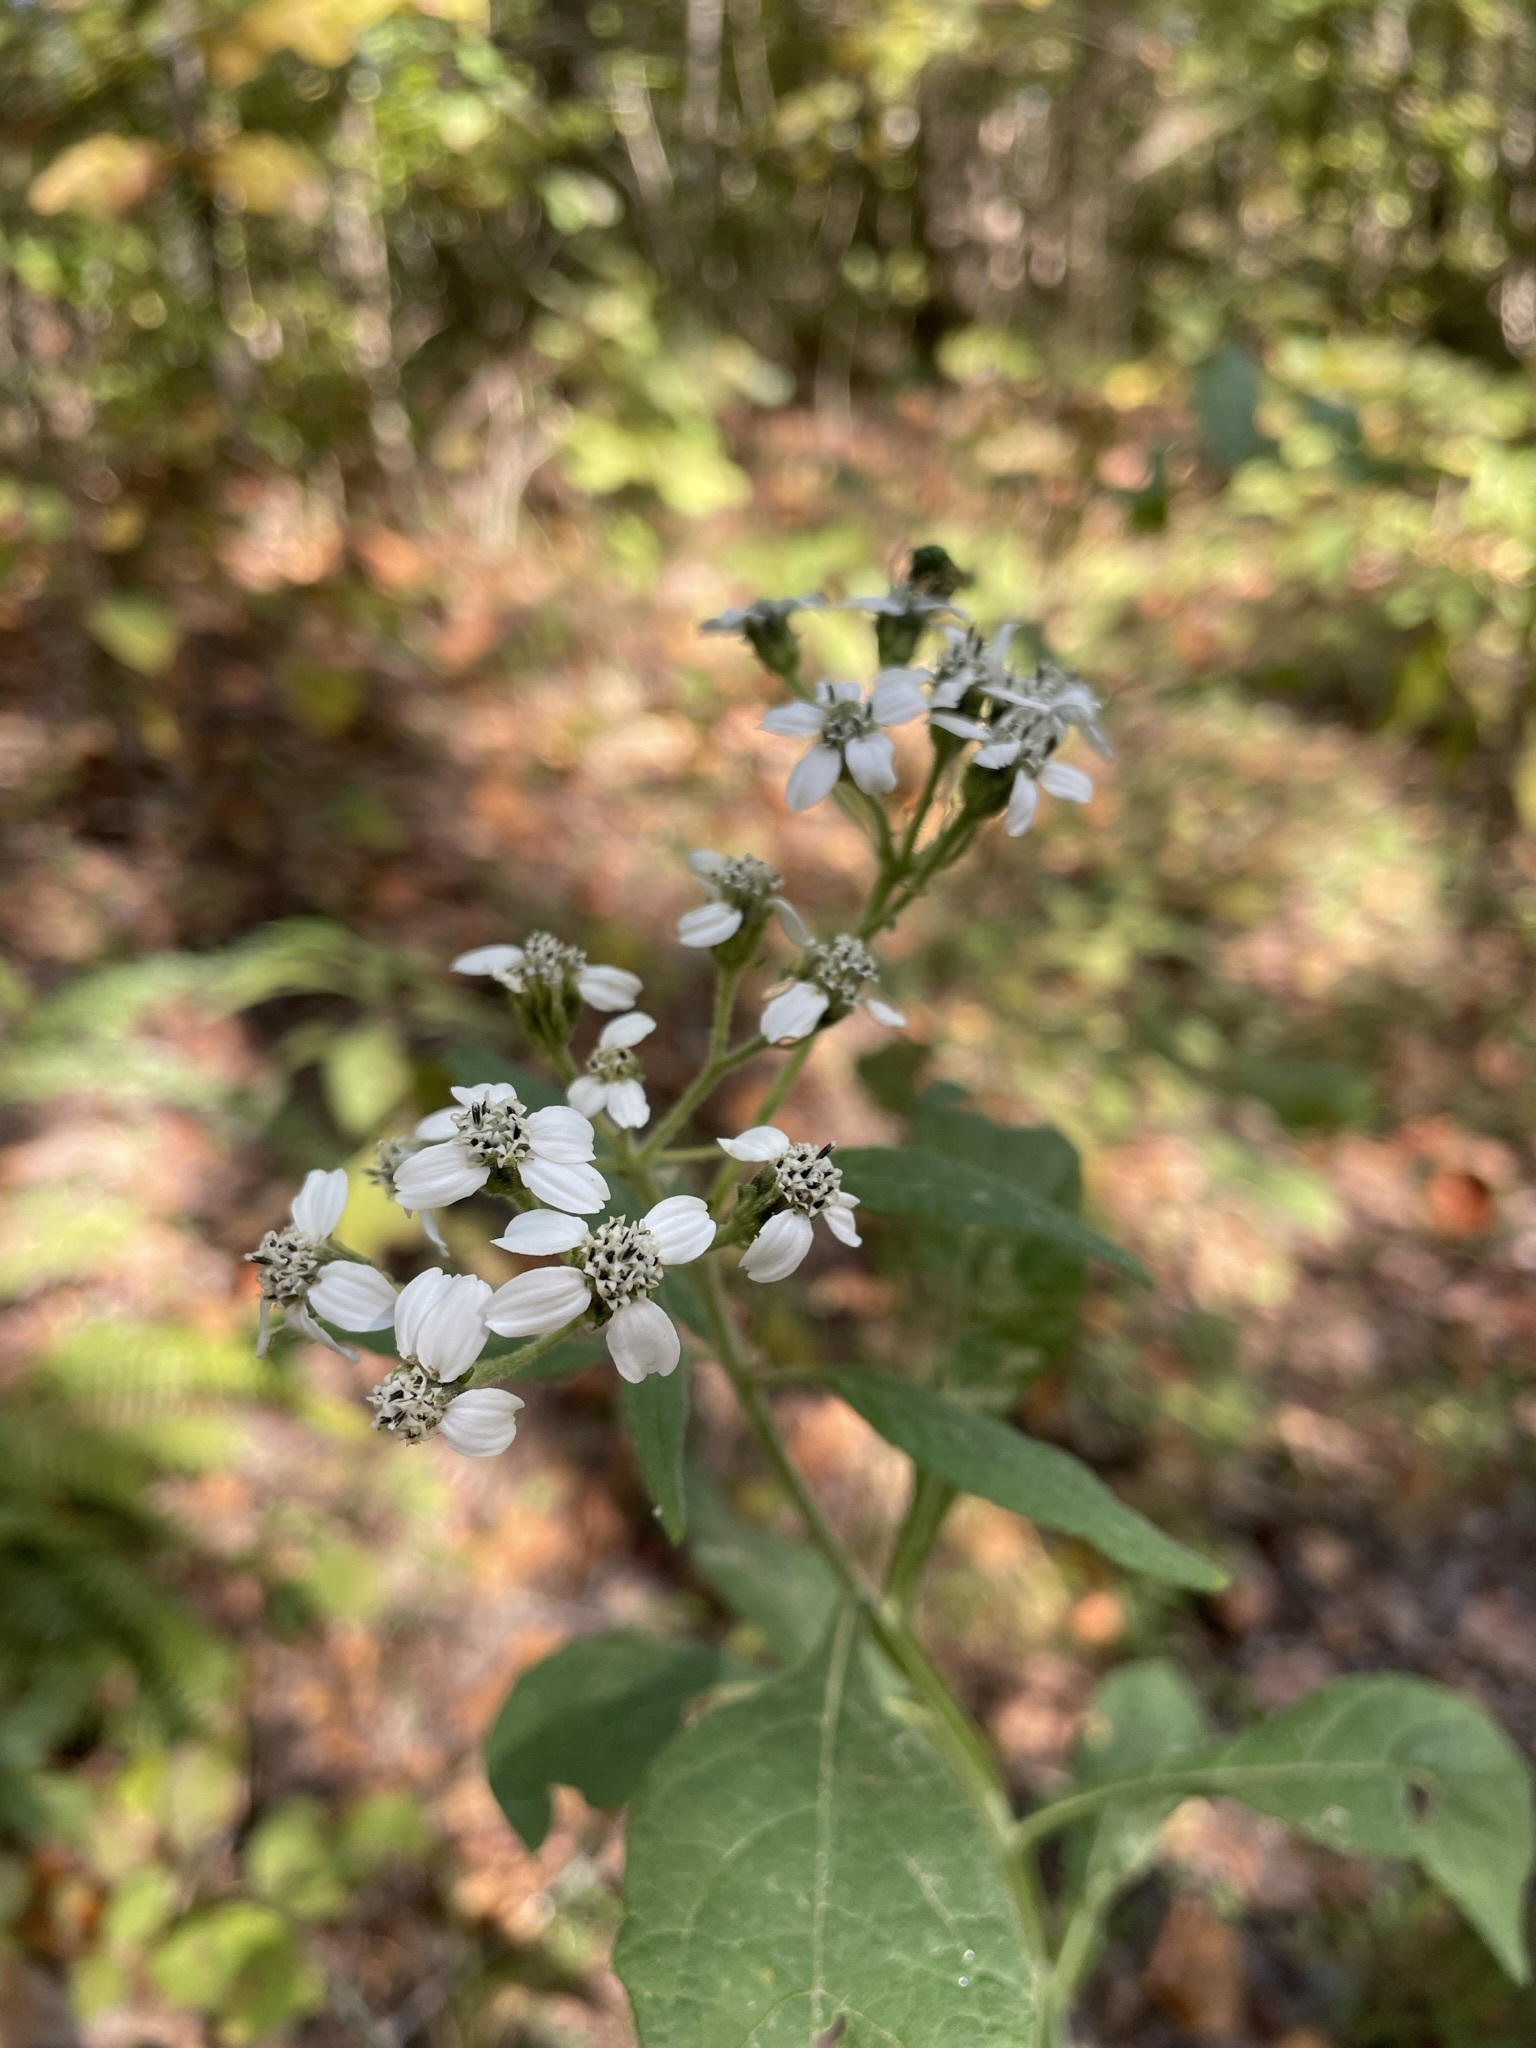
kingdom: Plantae
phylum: Tracheophyta
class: Magnoliopsida
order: Asterales
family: Asteraceae
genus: Verbesina
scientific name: Verbesina virginica
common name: Frostweed
